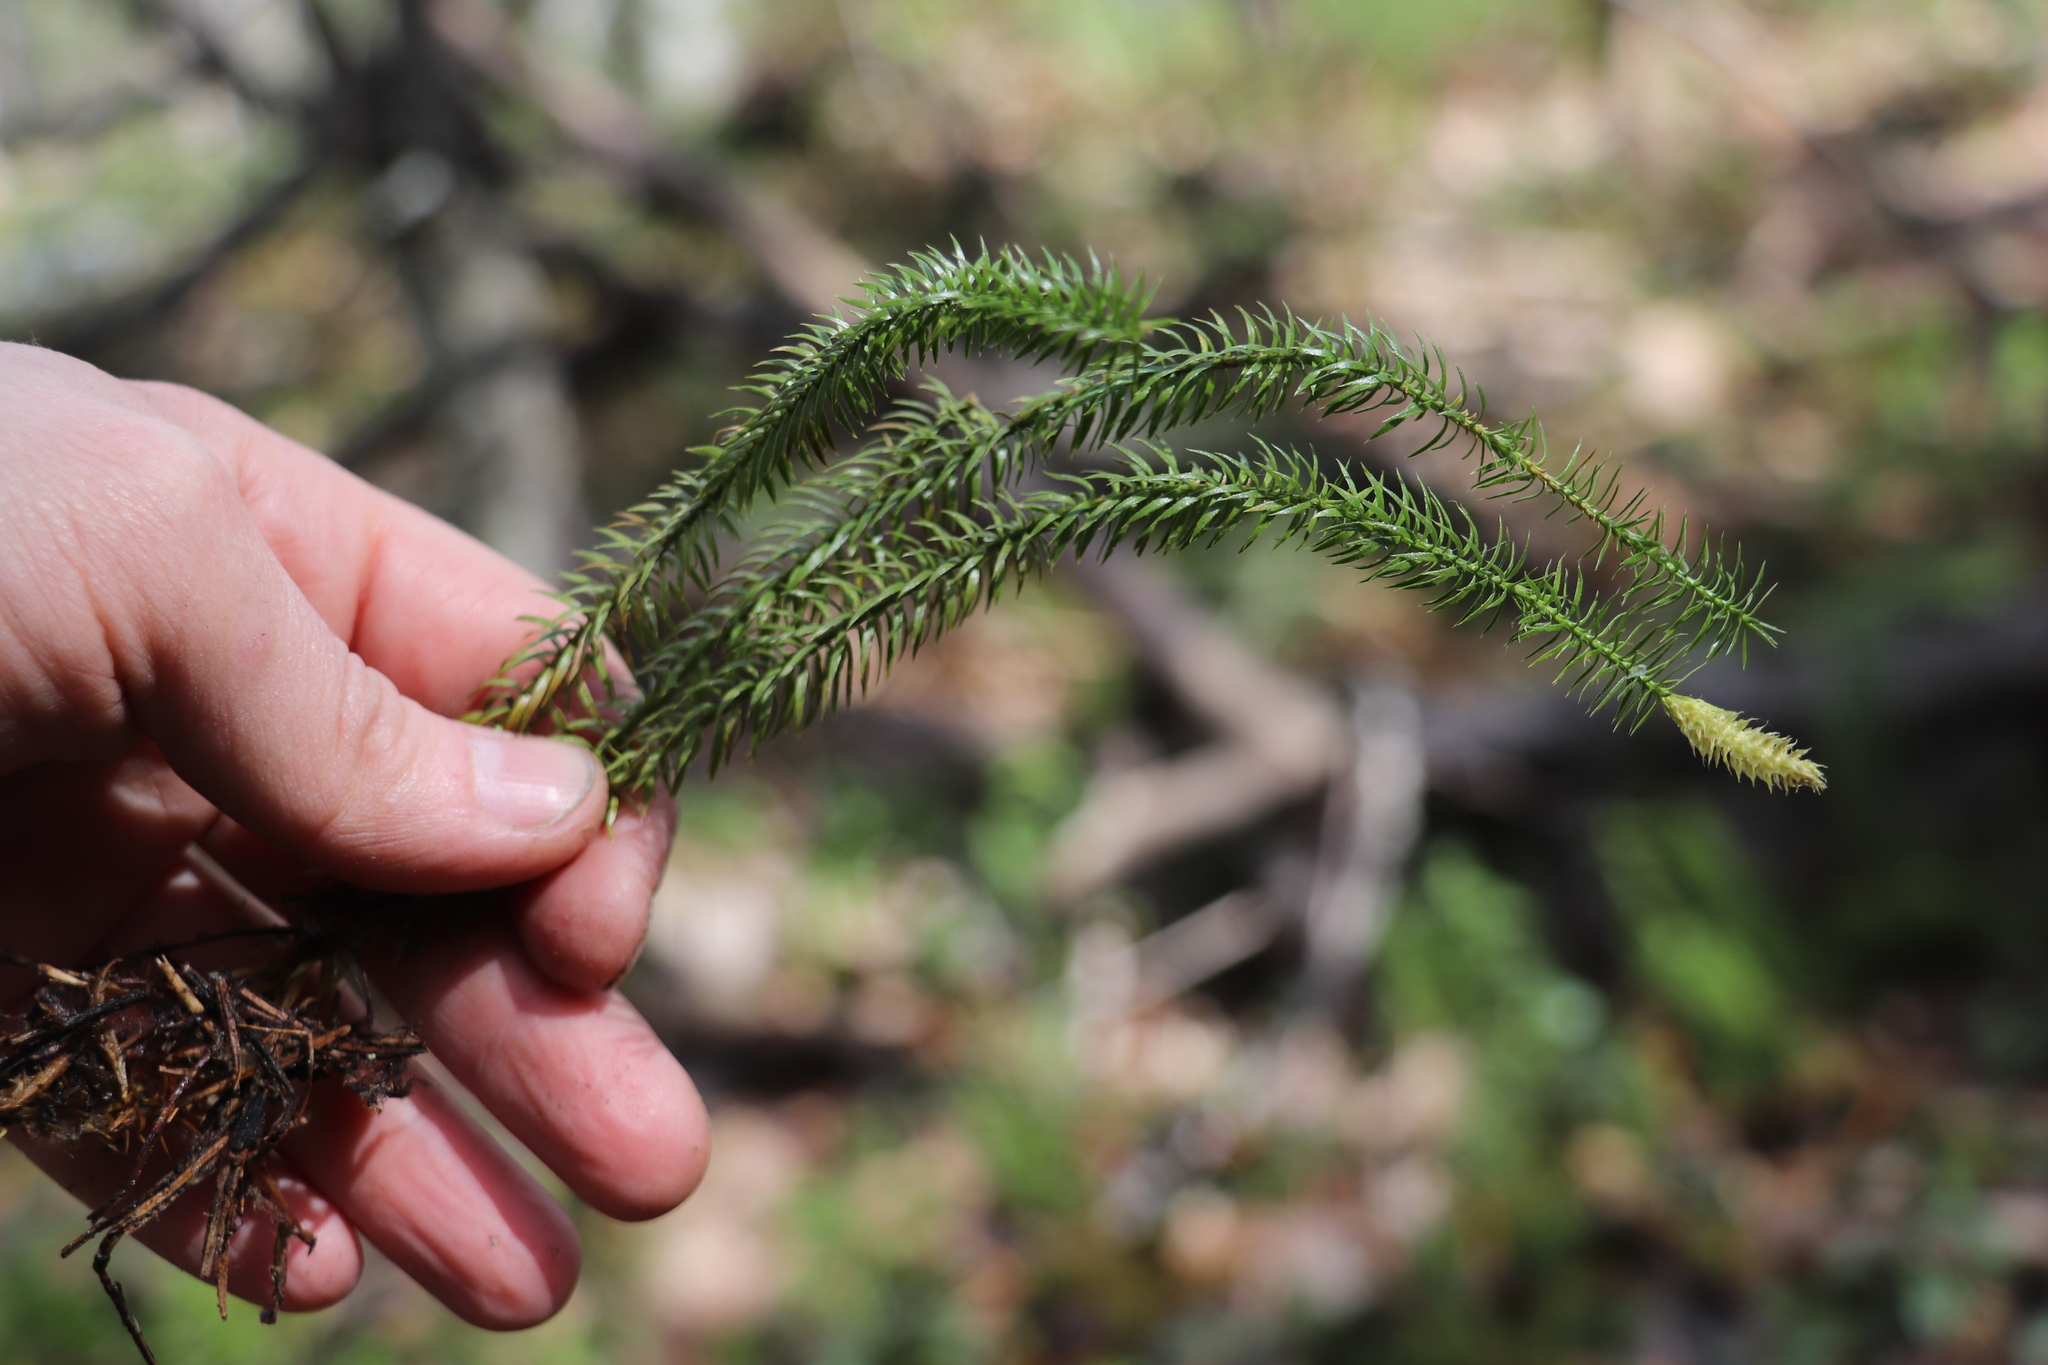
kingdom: Plantae
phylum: Tracheophyta
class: Lycopodiopsida
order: Lycopodiales
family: Lycopodiaceae
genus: Spinulum
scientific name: Spinulum annotinum
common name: Interrupted club-moss
